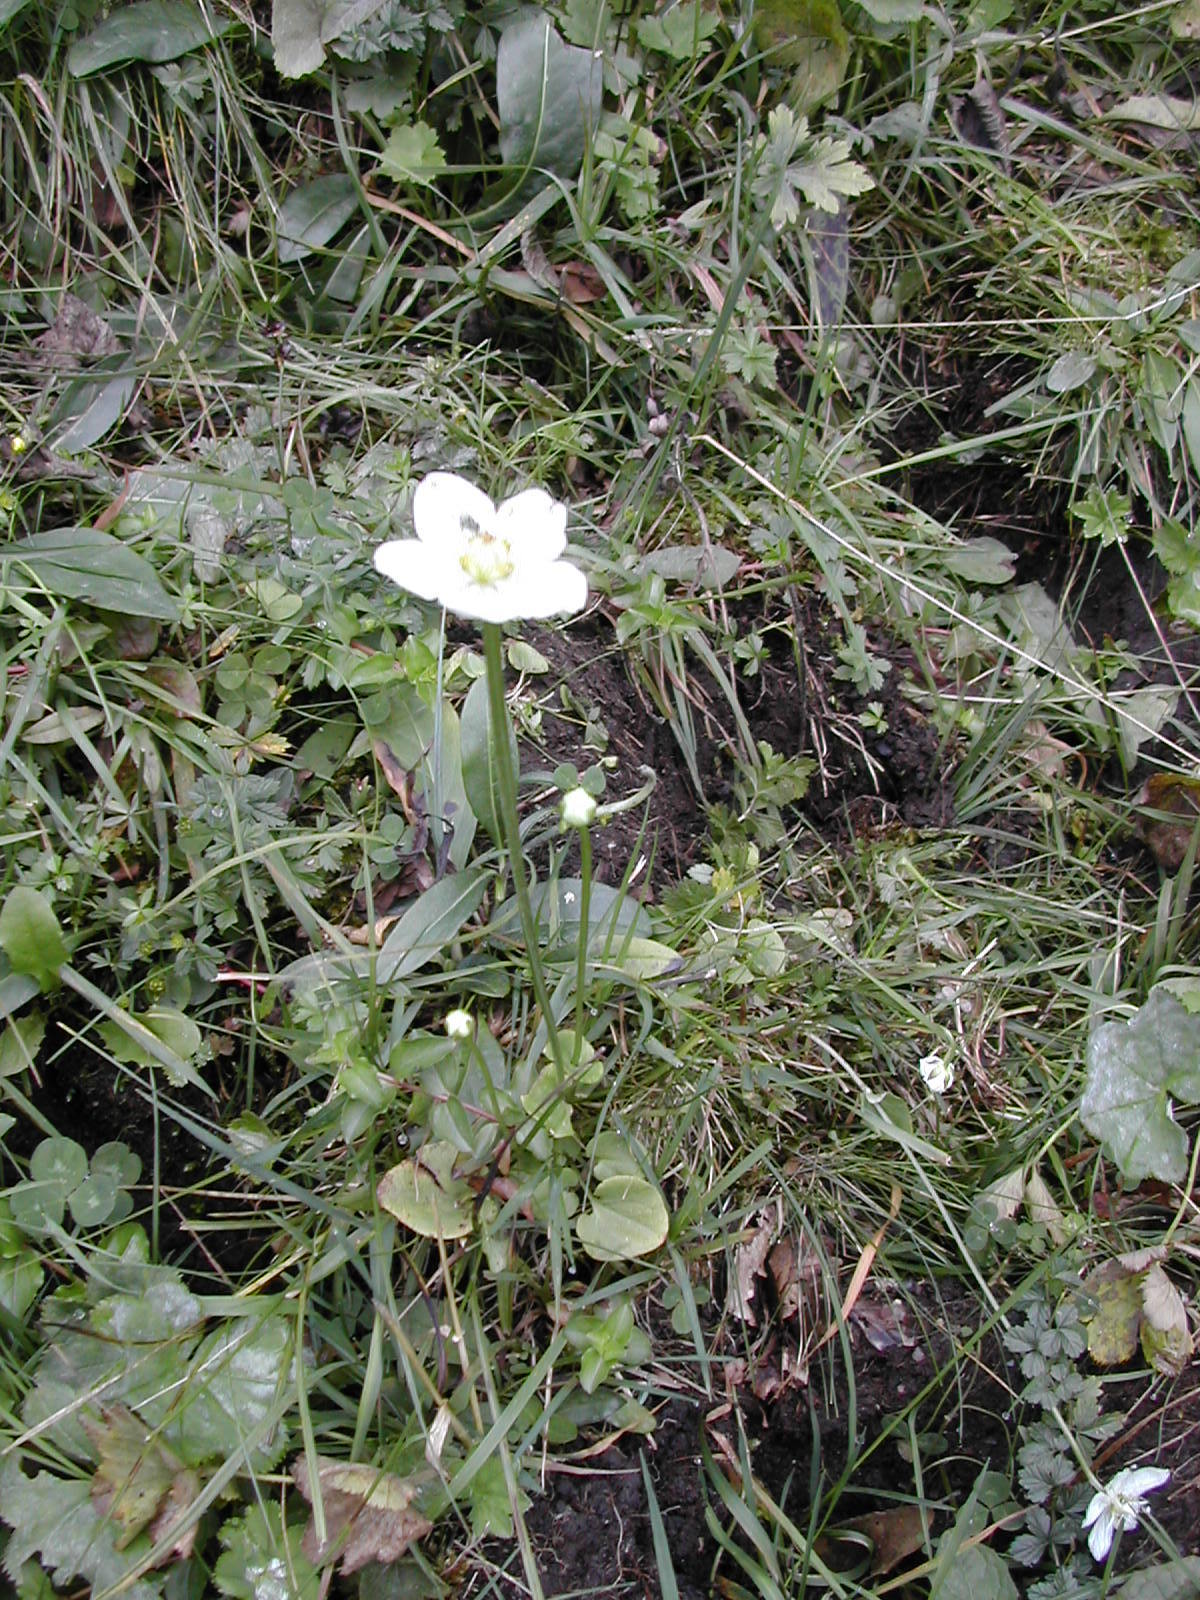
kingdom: Plantae
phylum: Tracheophyta
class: Magnoliopsida
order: Celastrales
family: Parnassiaceae
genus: Parnassia
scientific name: Parnassia palustris
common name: Grass-of-parnassus
